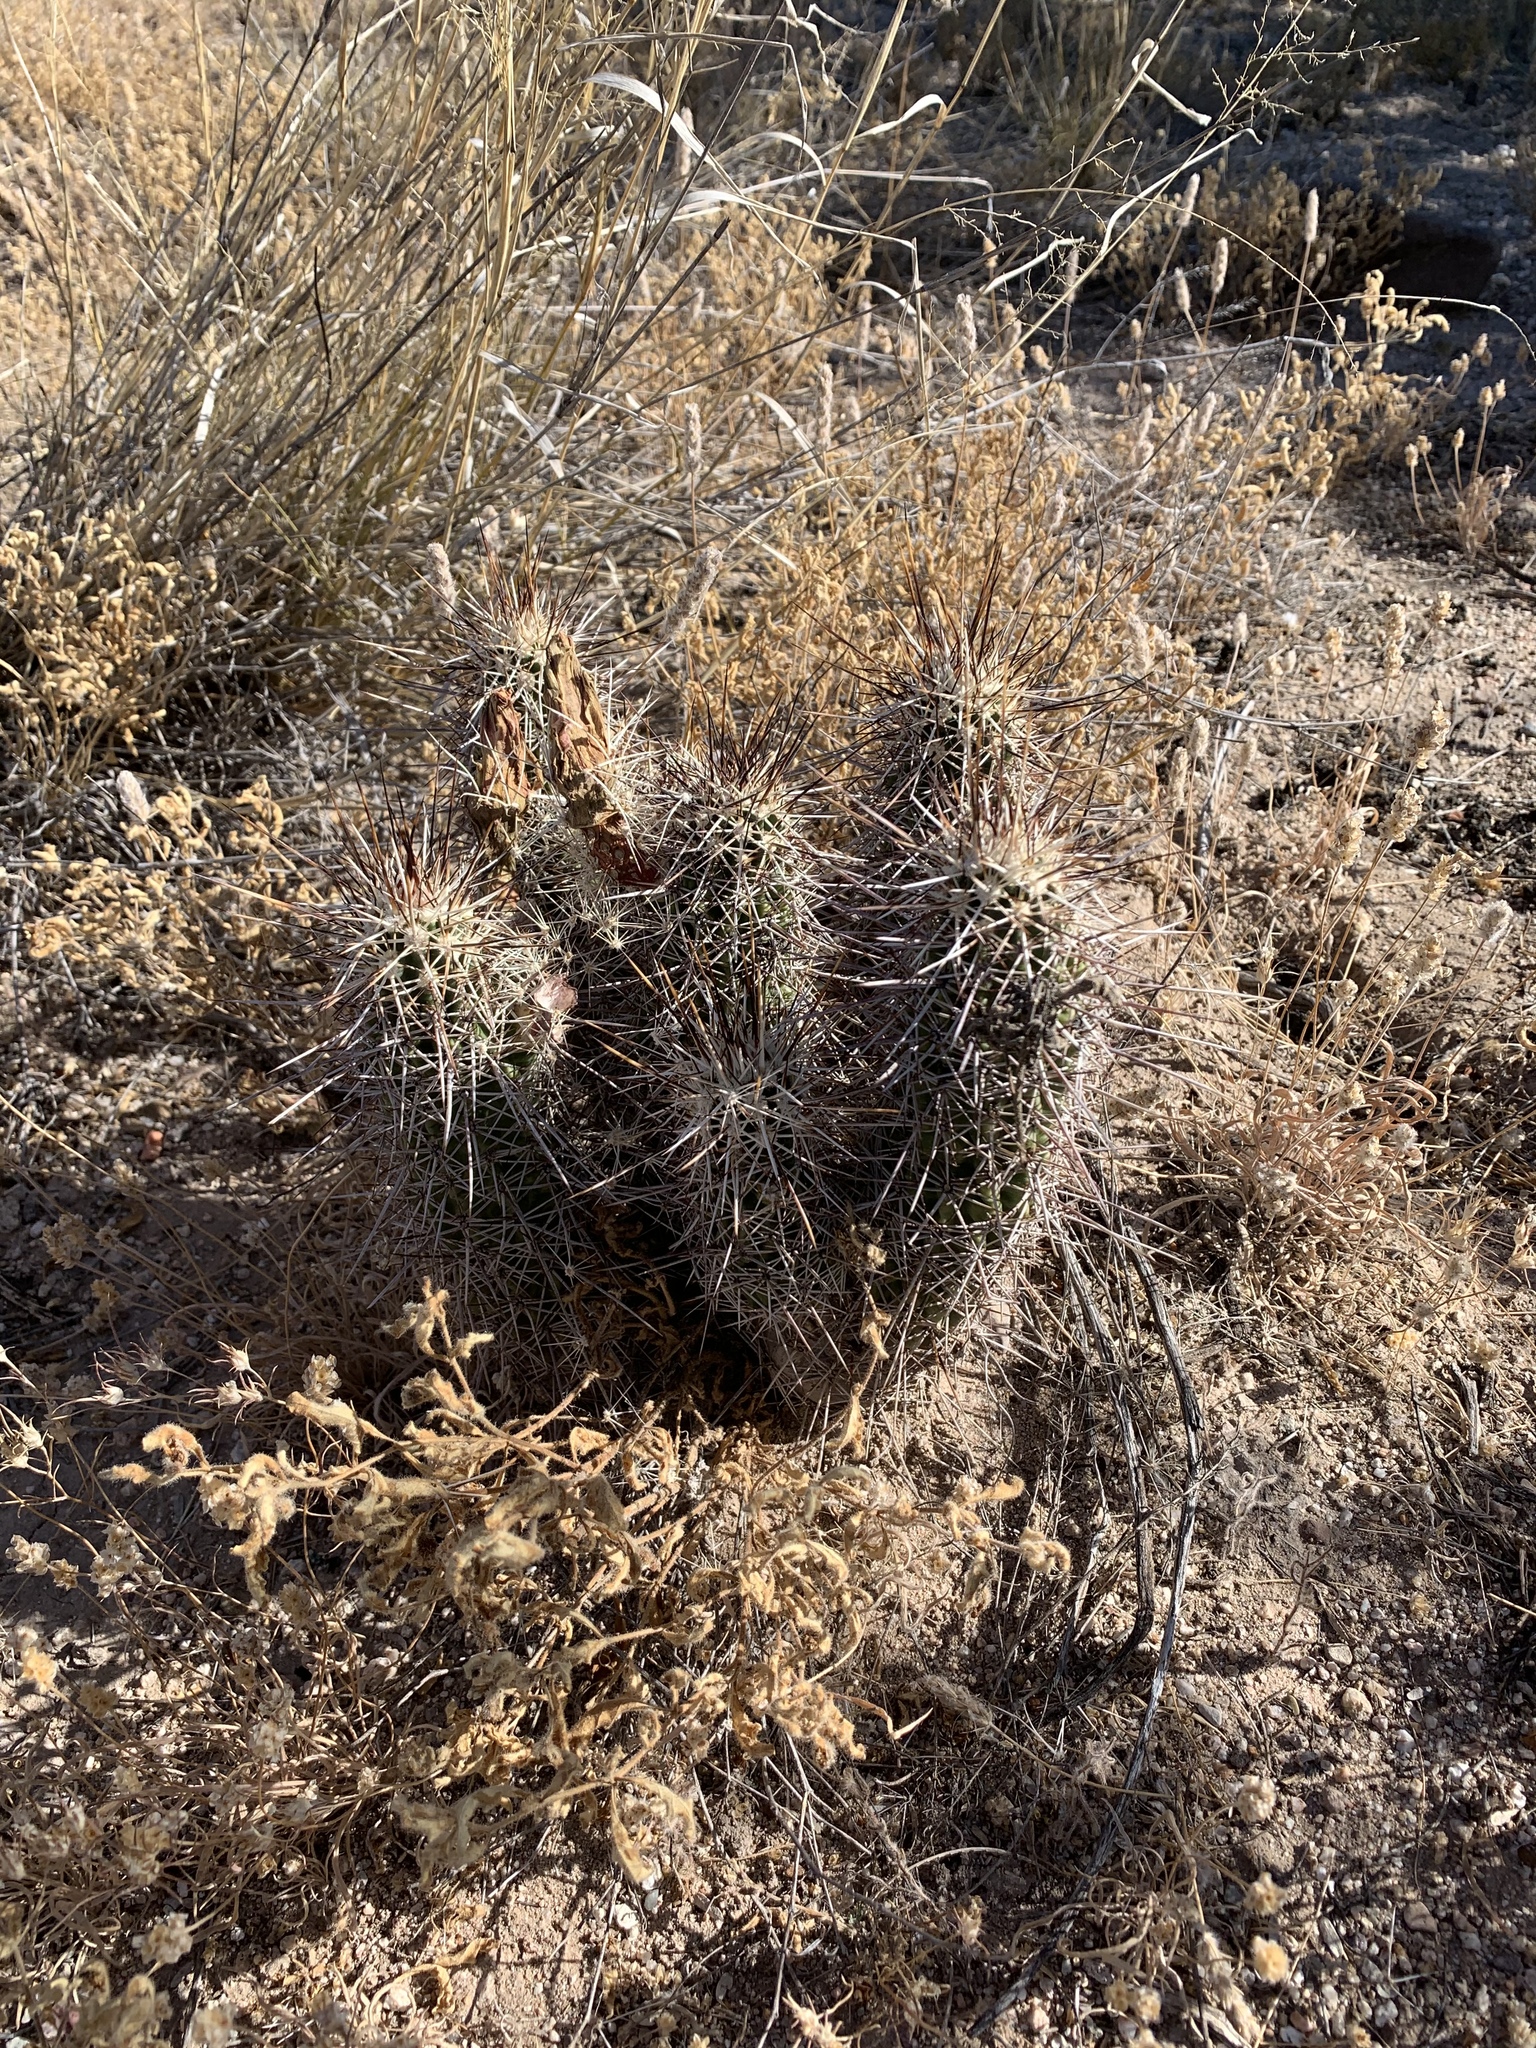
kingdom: Plantae
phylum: Tracheophyta
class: Magnoliopsida
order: Caryophyllales
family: Cactaceae
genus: Echinocereus
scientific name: Echinocereus fasciculatus
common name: Bundle hedgehog
